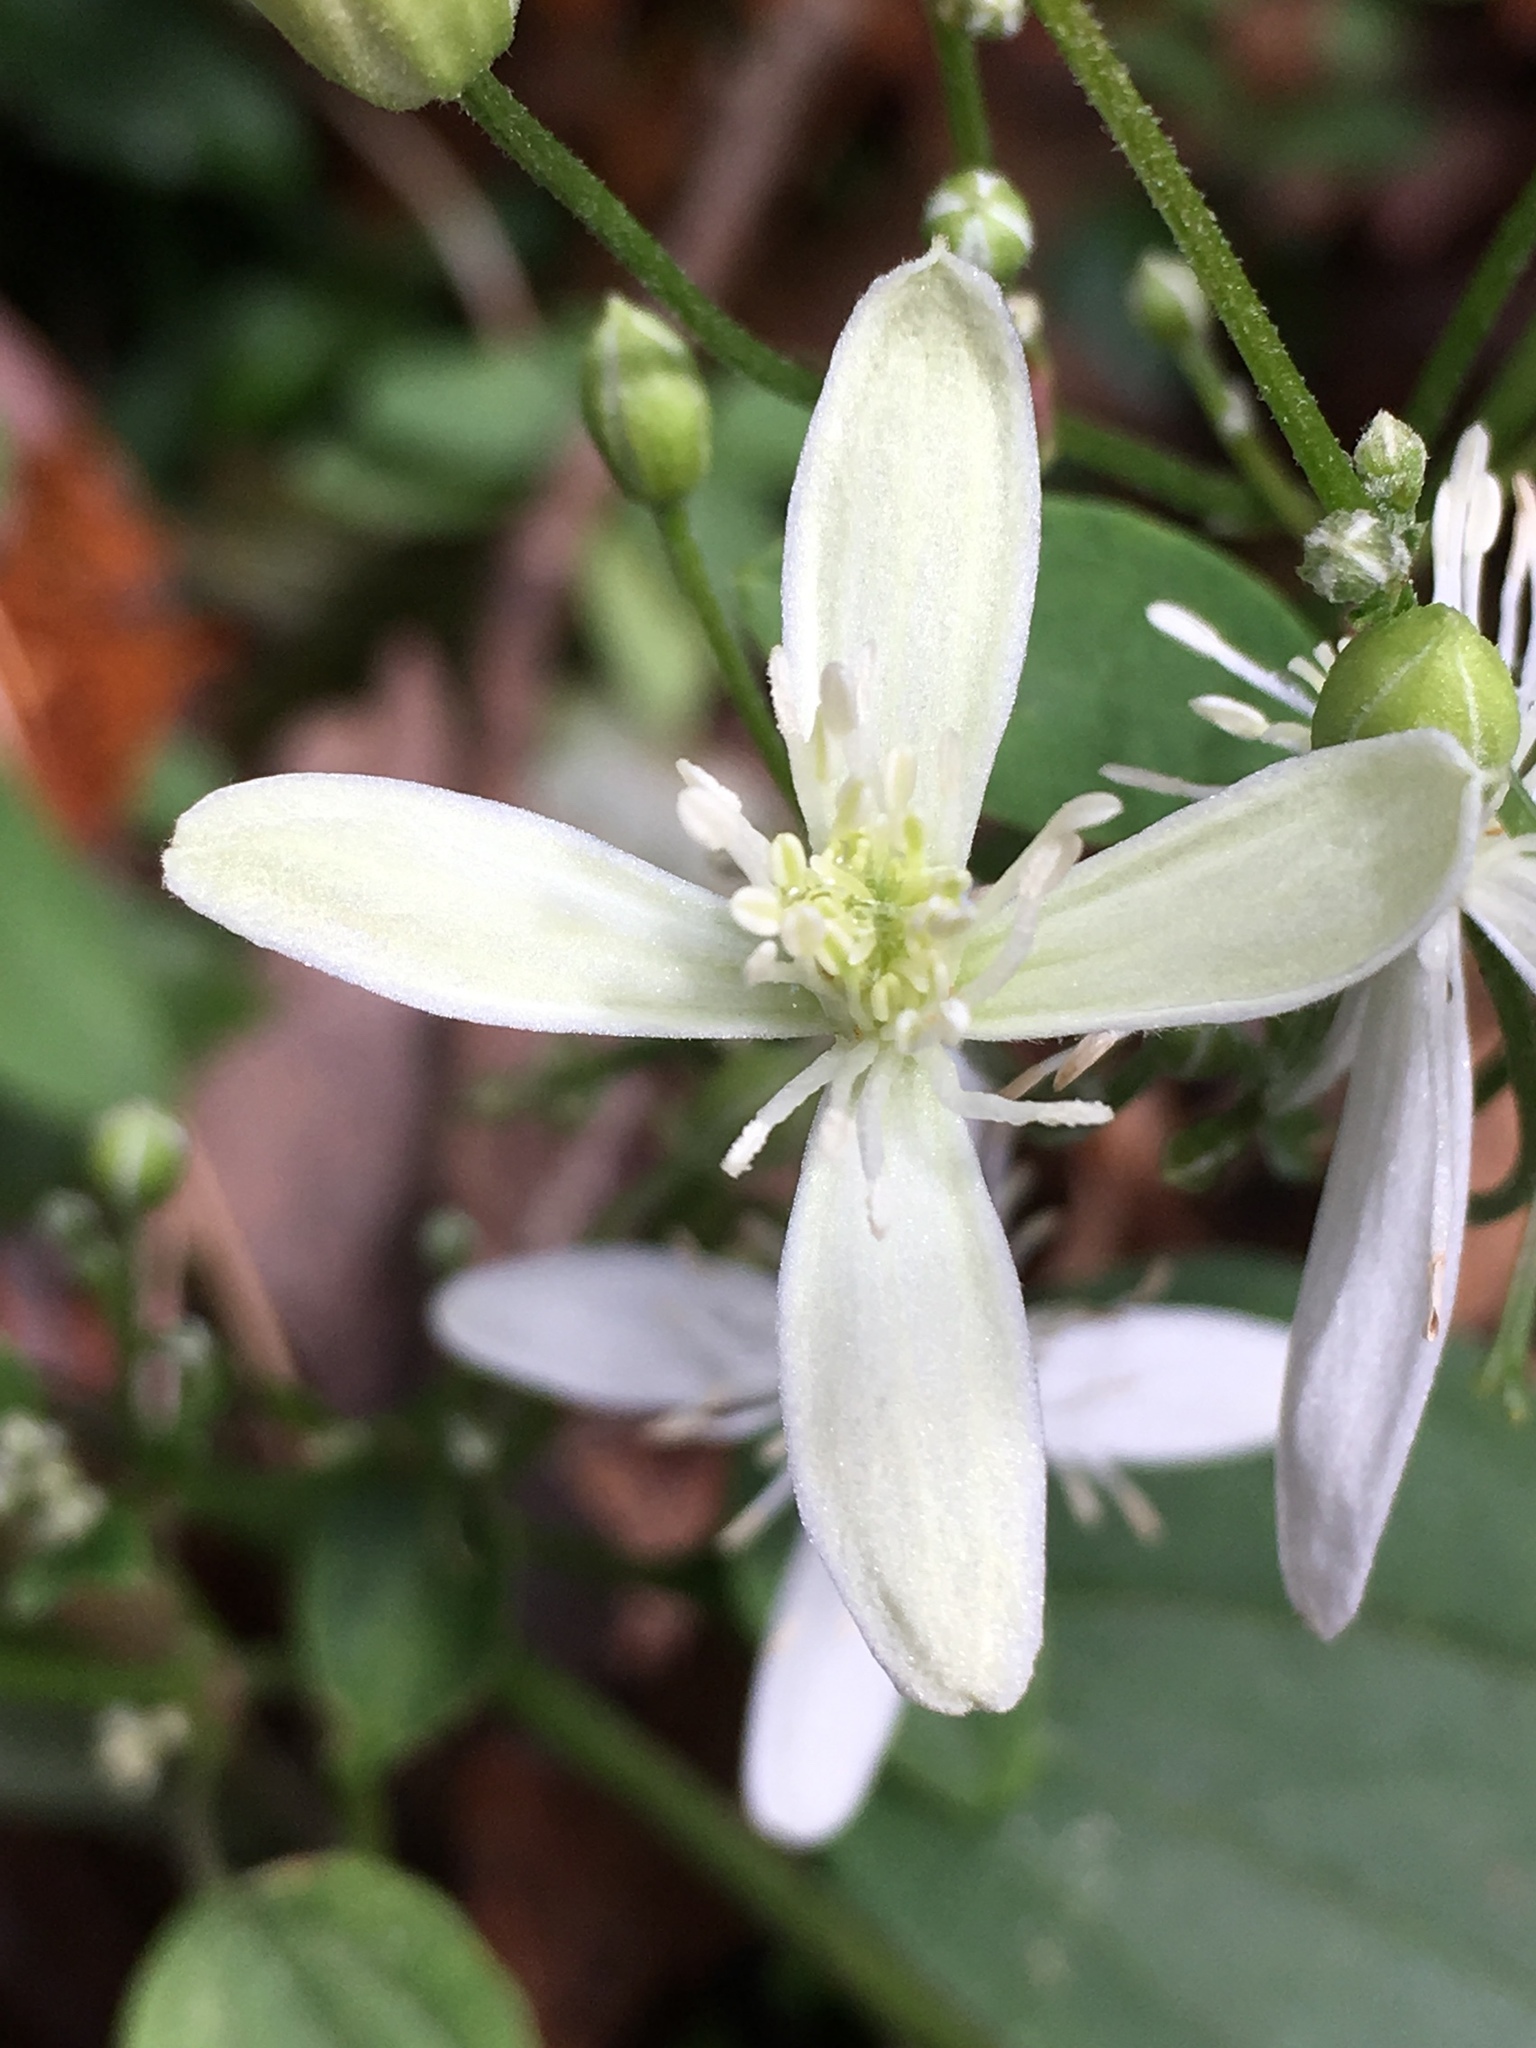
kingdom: Plantae
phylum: Tracheophyta
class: Magnoliopsida
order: Ranunculales
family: Ranunculaceae
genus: Clematis
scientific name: Clematis terniflora
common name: Sweet autumn clematis
